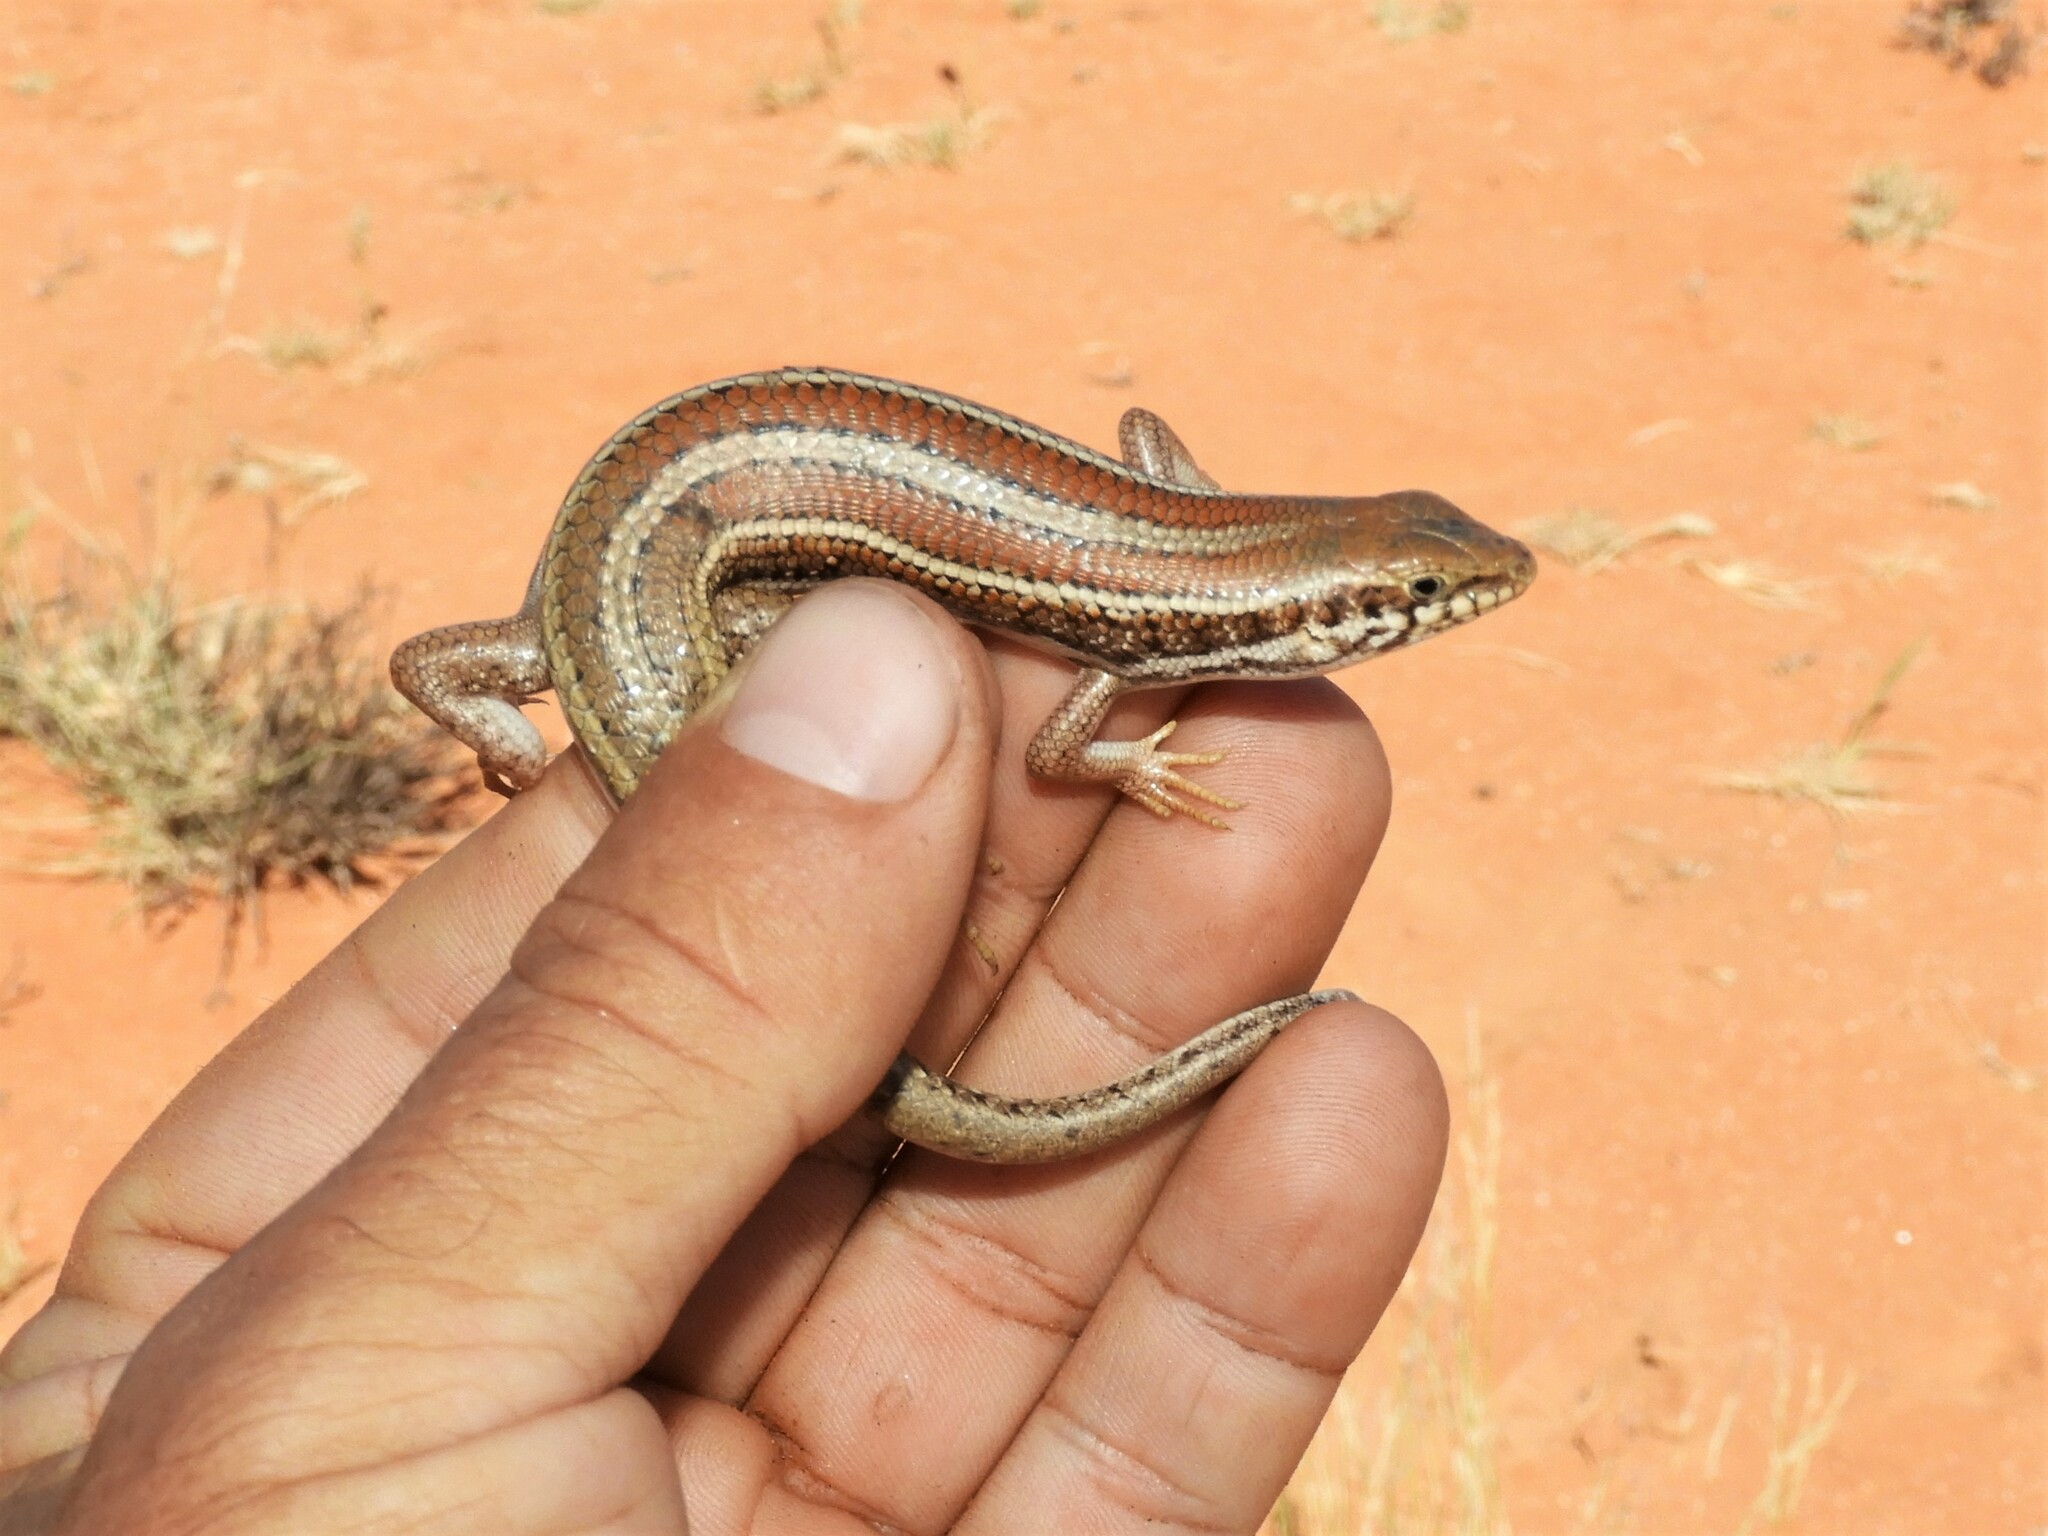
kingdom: Animalia
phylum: Chordata
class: Squamata
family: Scincidae
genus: Trachylepis
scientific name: Trachylepis occidentalis
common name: Western three-striped skink
